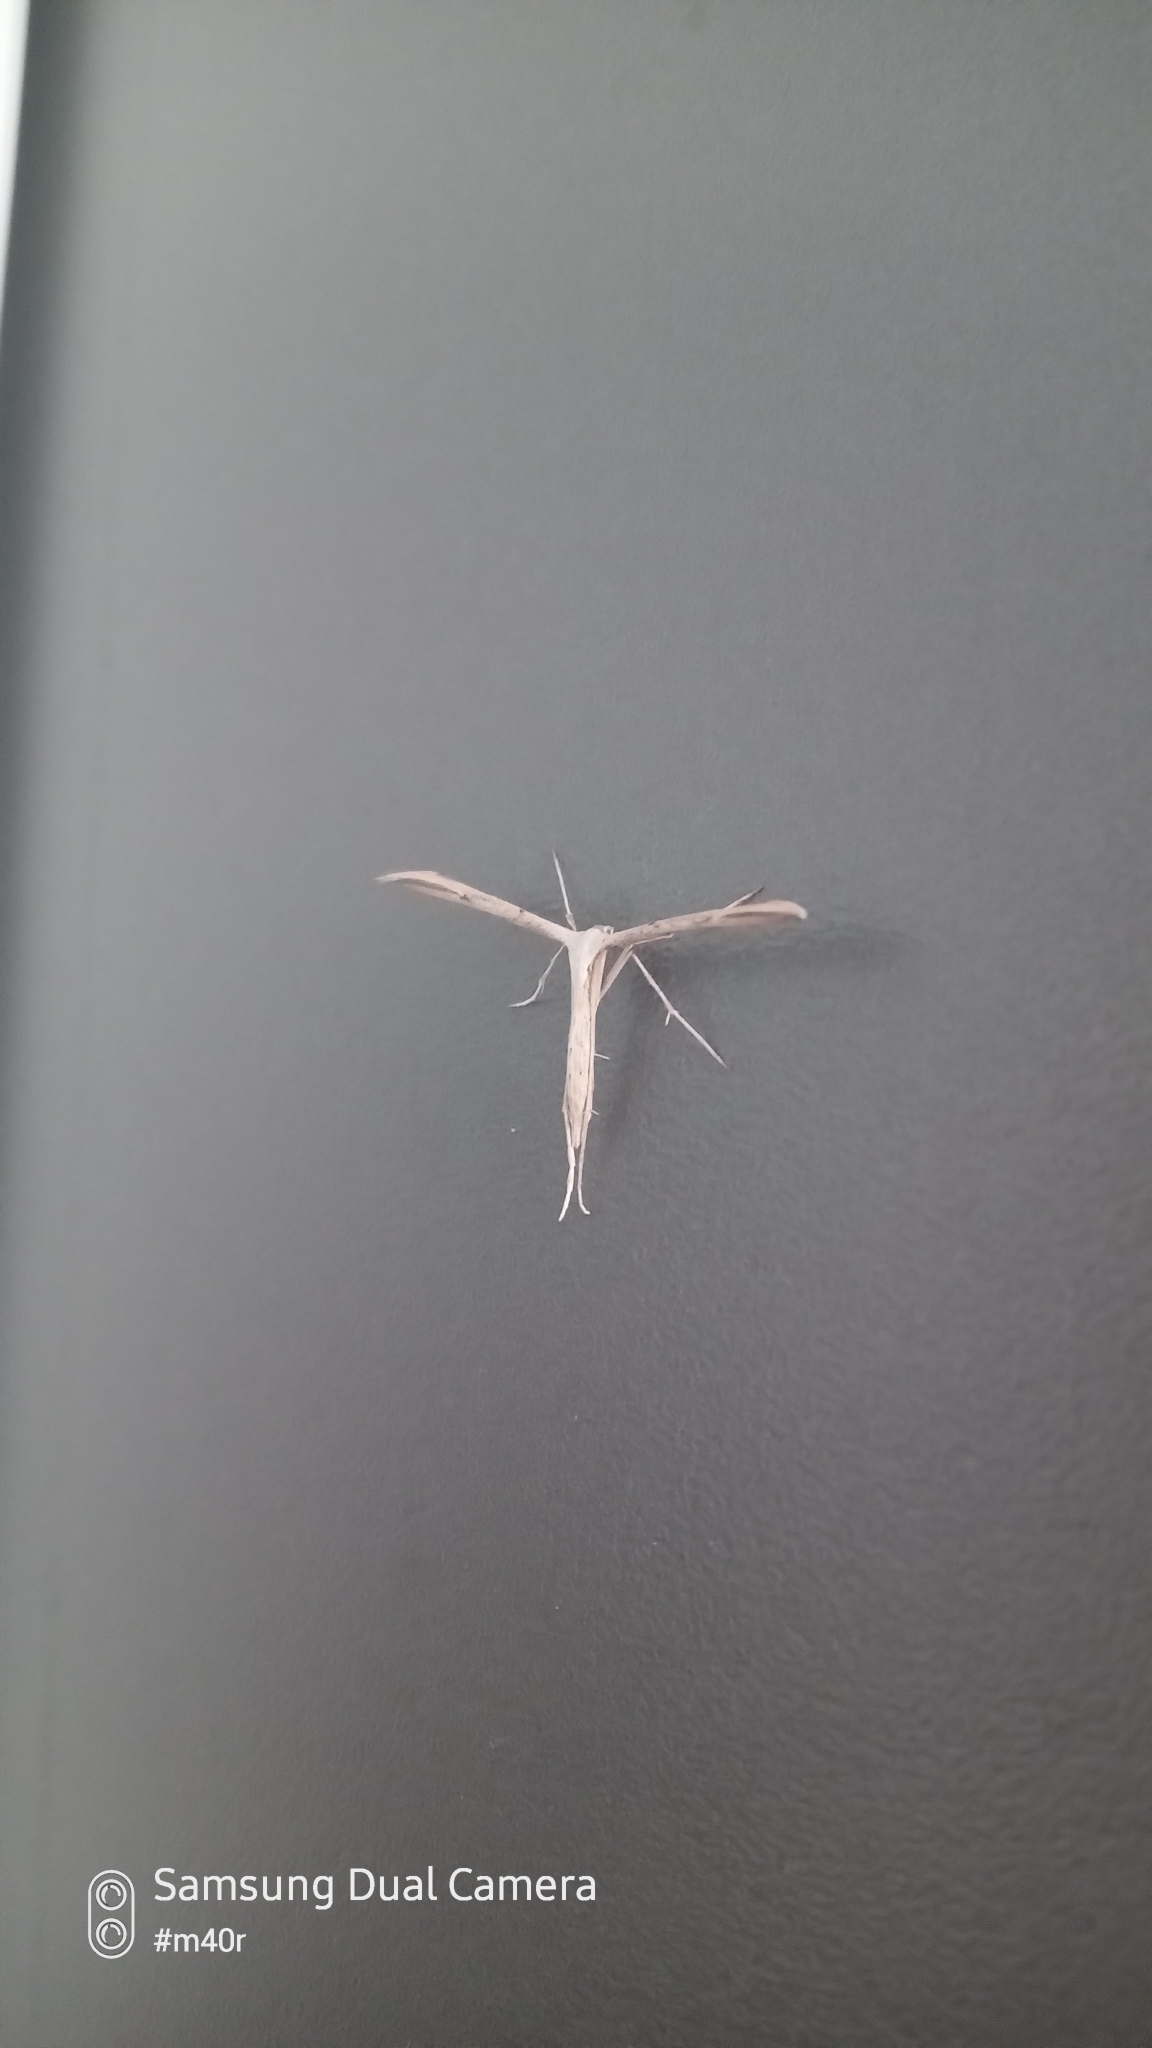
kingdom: Animalia
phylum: Arthropoda
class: Insecta
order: Lepidoptera
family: Pterophoridae
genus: Emmelina
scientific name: Emmelina monodactyla
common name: Common plume
